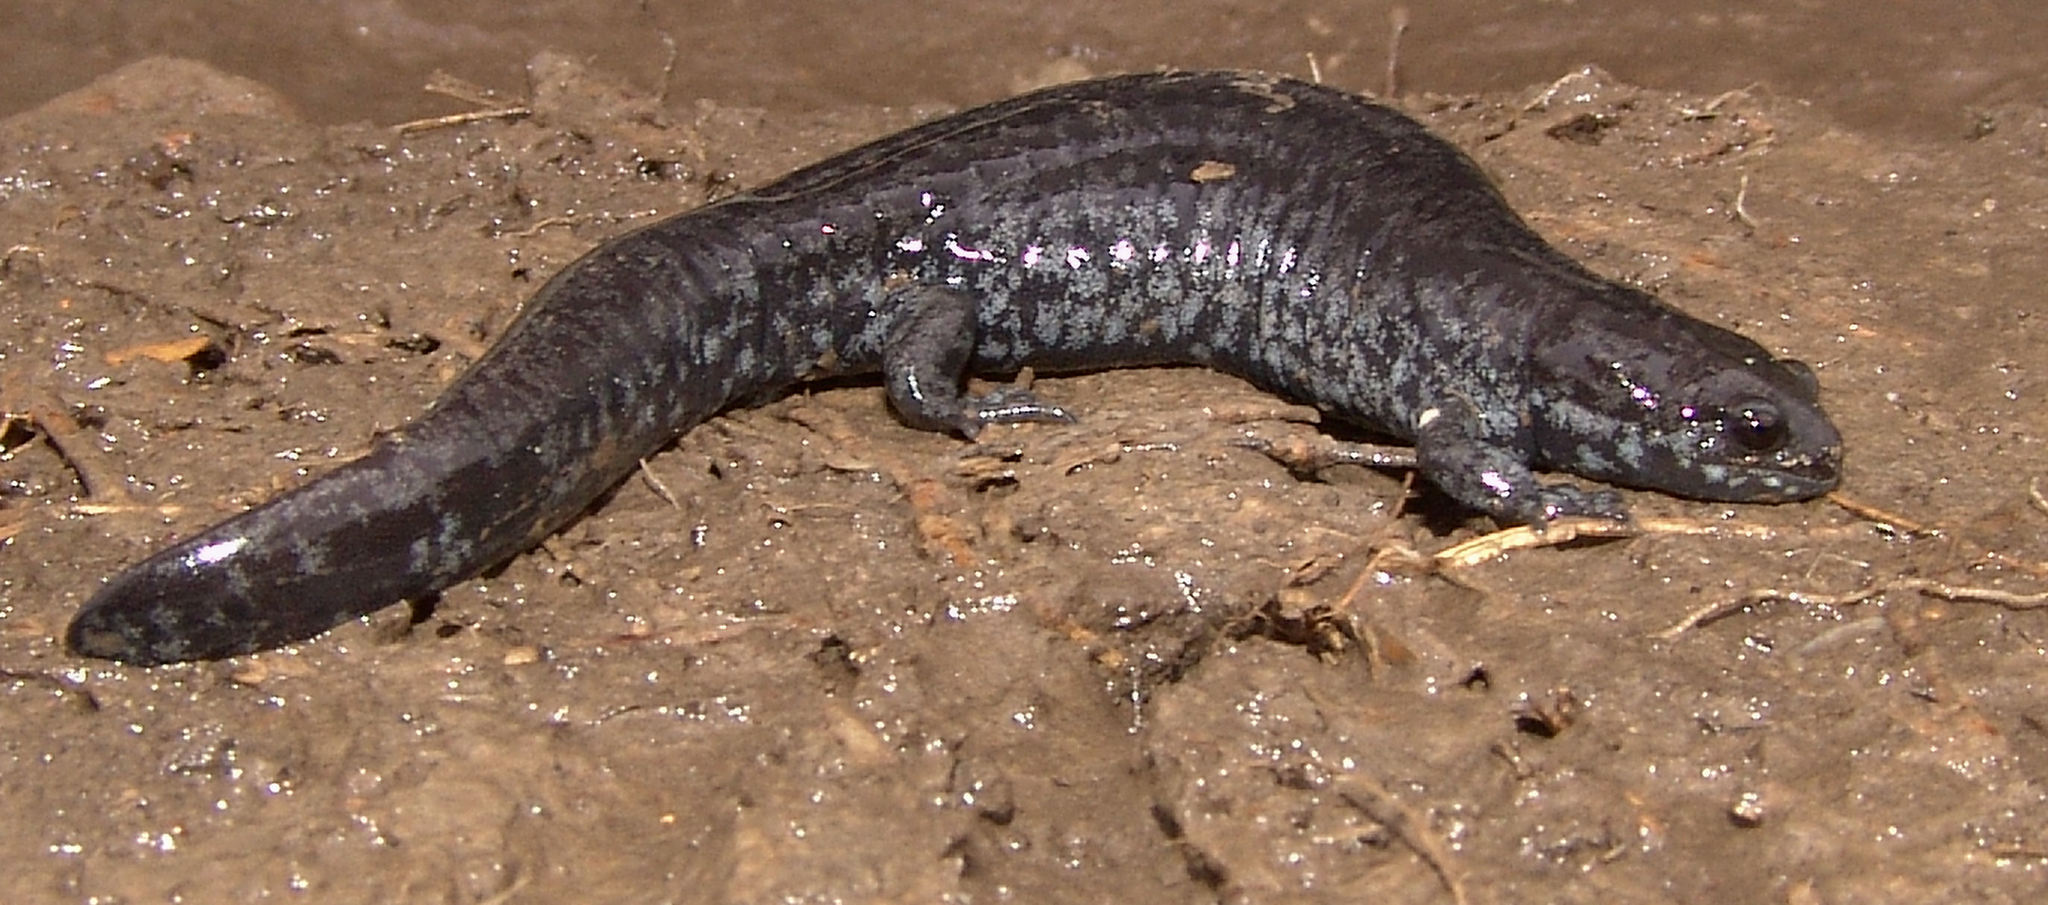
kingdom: Animalia
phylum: Chordata
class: Amphibia
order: Caudata
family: Ambystomatidae
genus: Ambystoma
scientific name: Ambystoma texanum
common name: Small-mouth salamander
